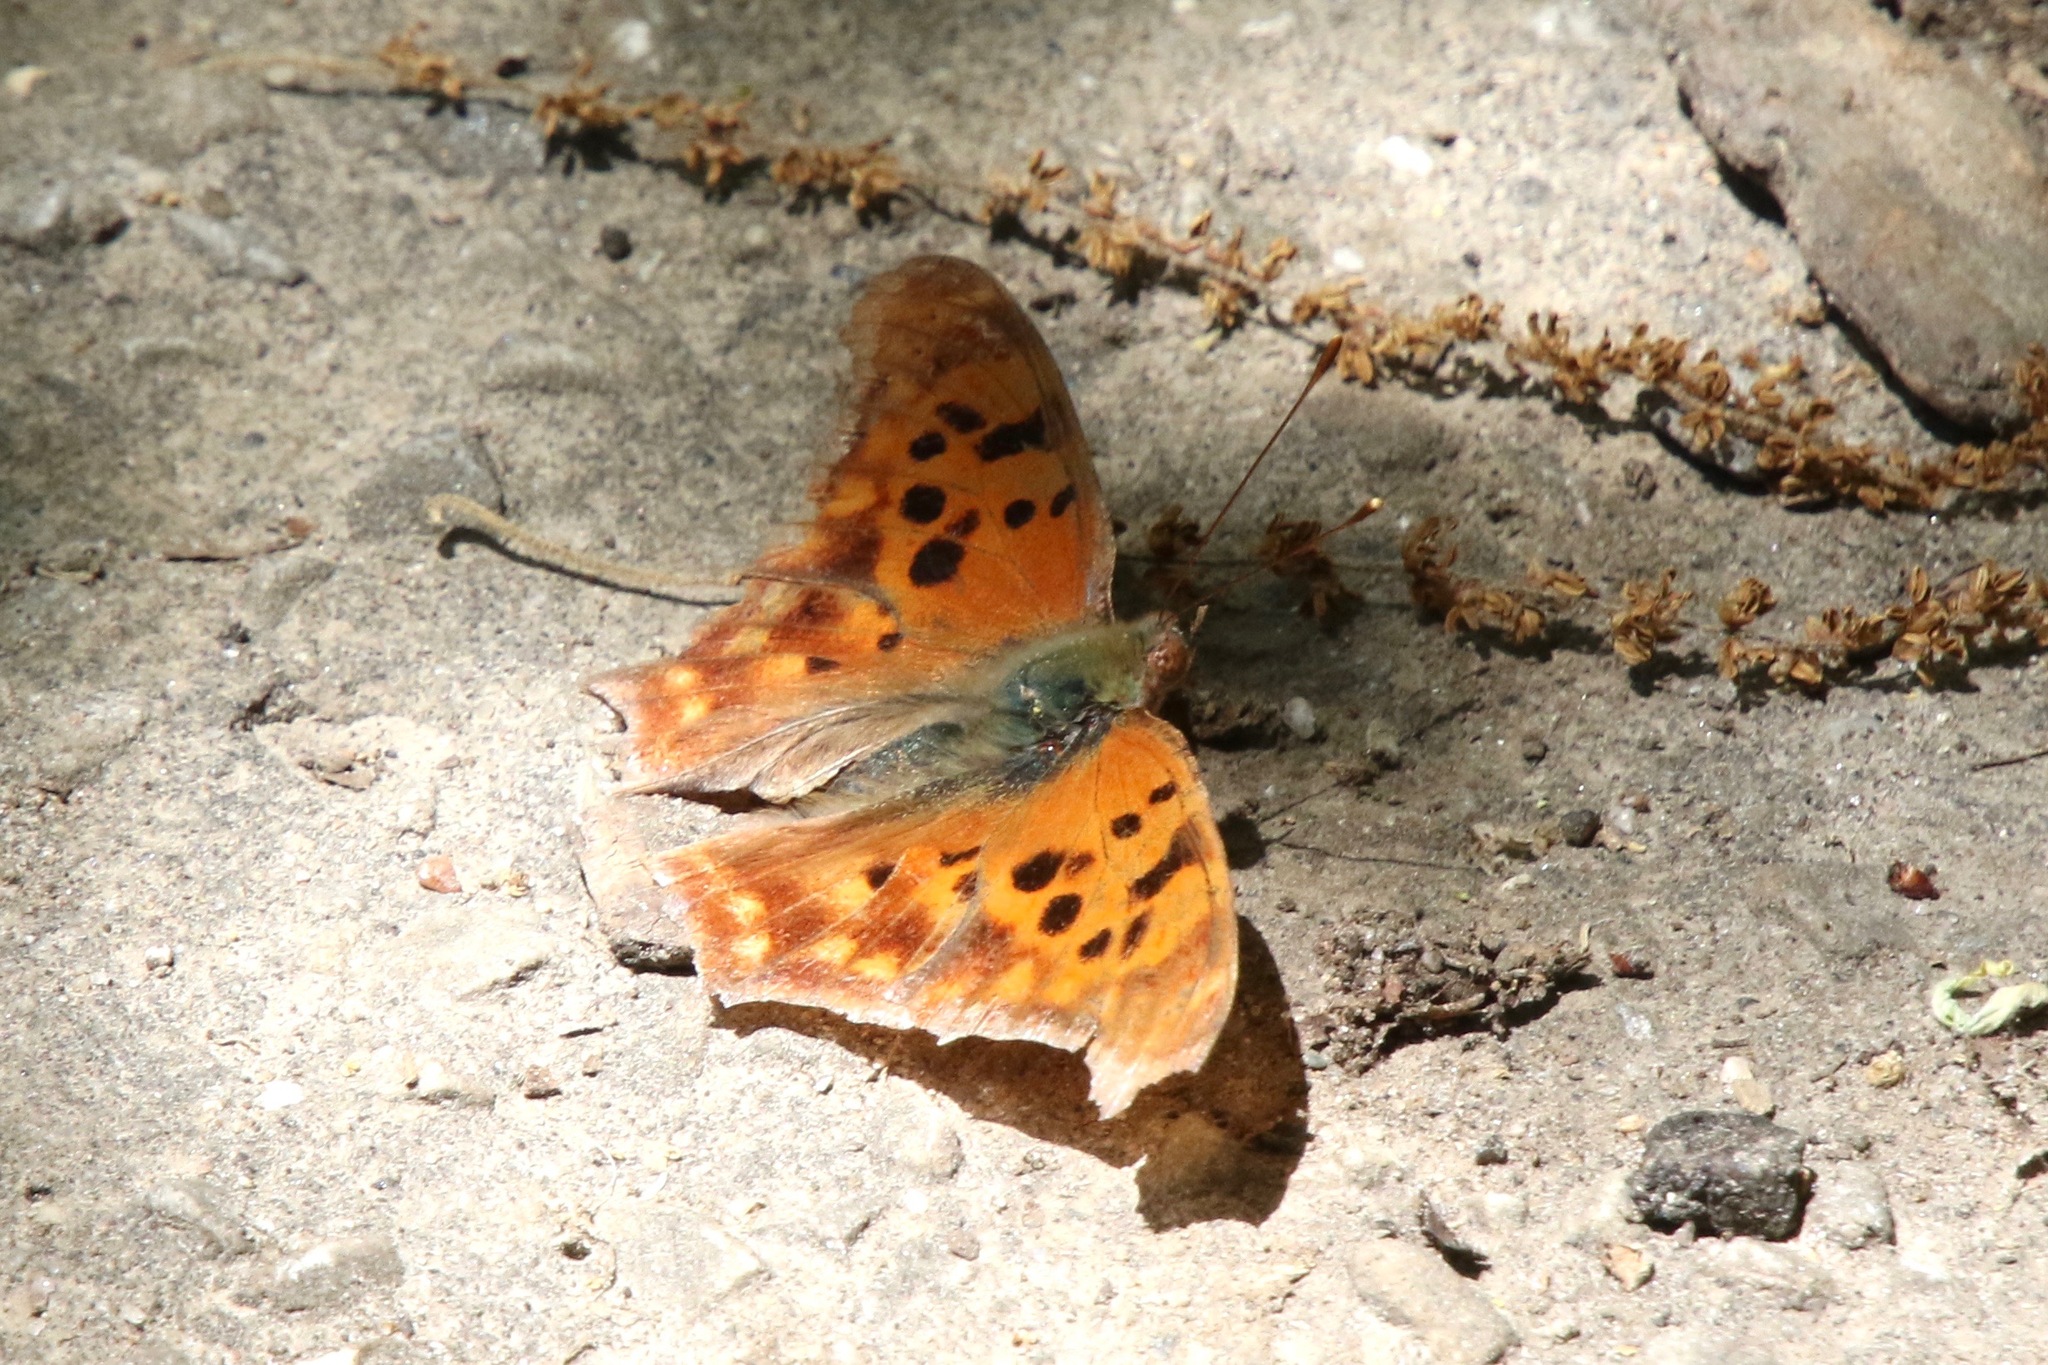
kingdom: Animalia
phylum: Arthropoda
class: Insecta
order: Lepidoptera
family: Nymphalidae
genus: Polygonia
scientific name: Polygonia interrogationis
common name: Question mark
